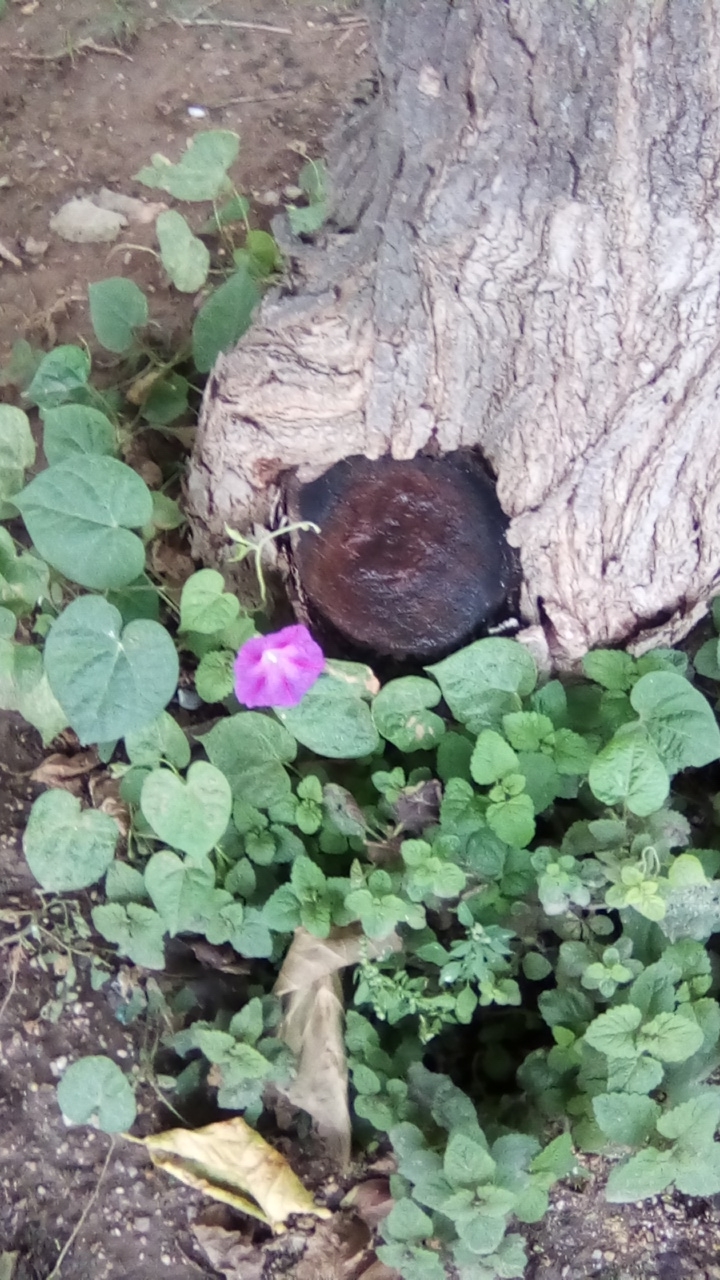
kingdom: Plantae
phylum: Tracheophyta
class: Magnoliopsida
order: Solanales
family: Convolvulaceae
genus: Ipomoea
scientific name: Ipomoea purpurea
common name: Common morning-glory
